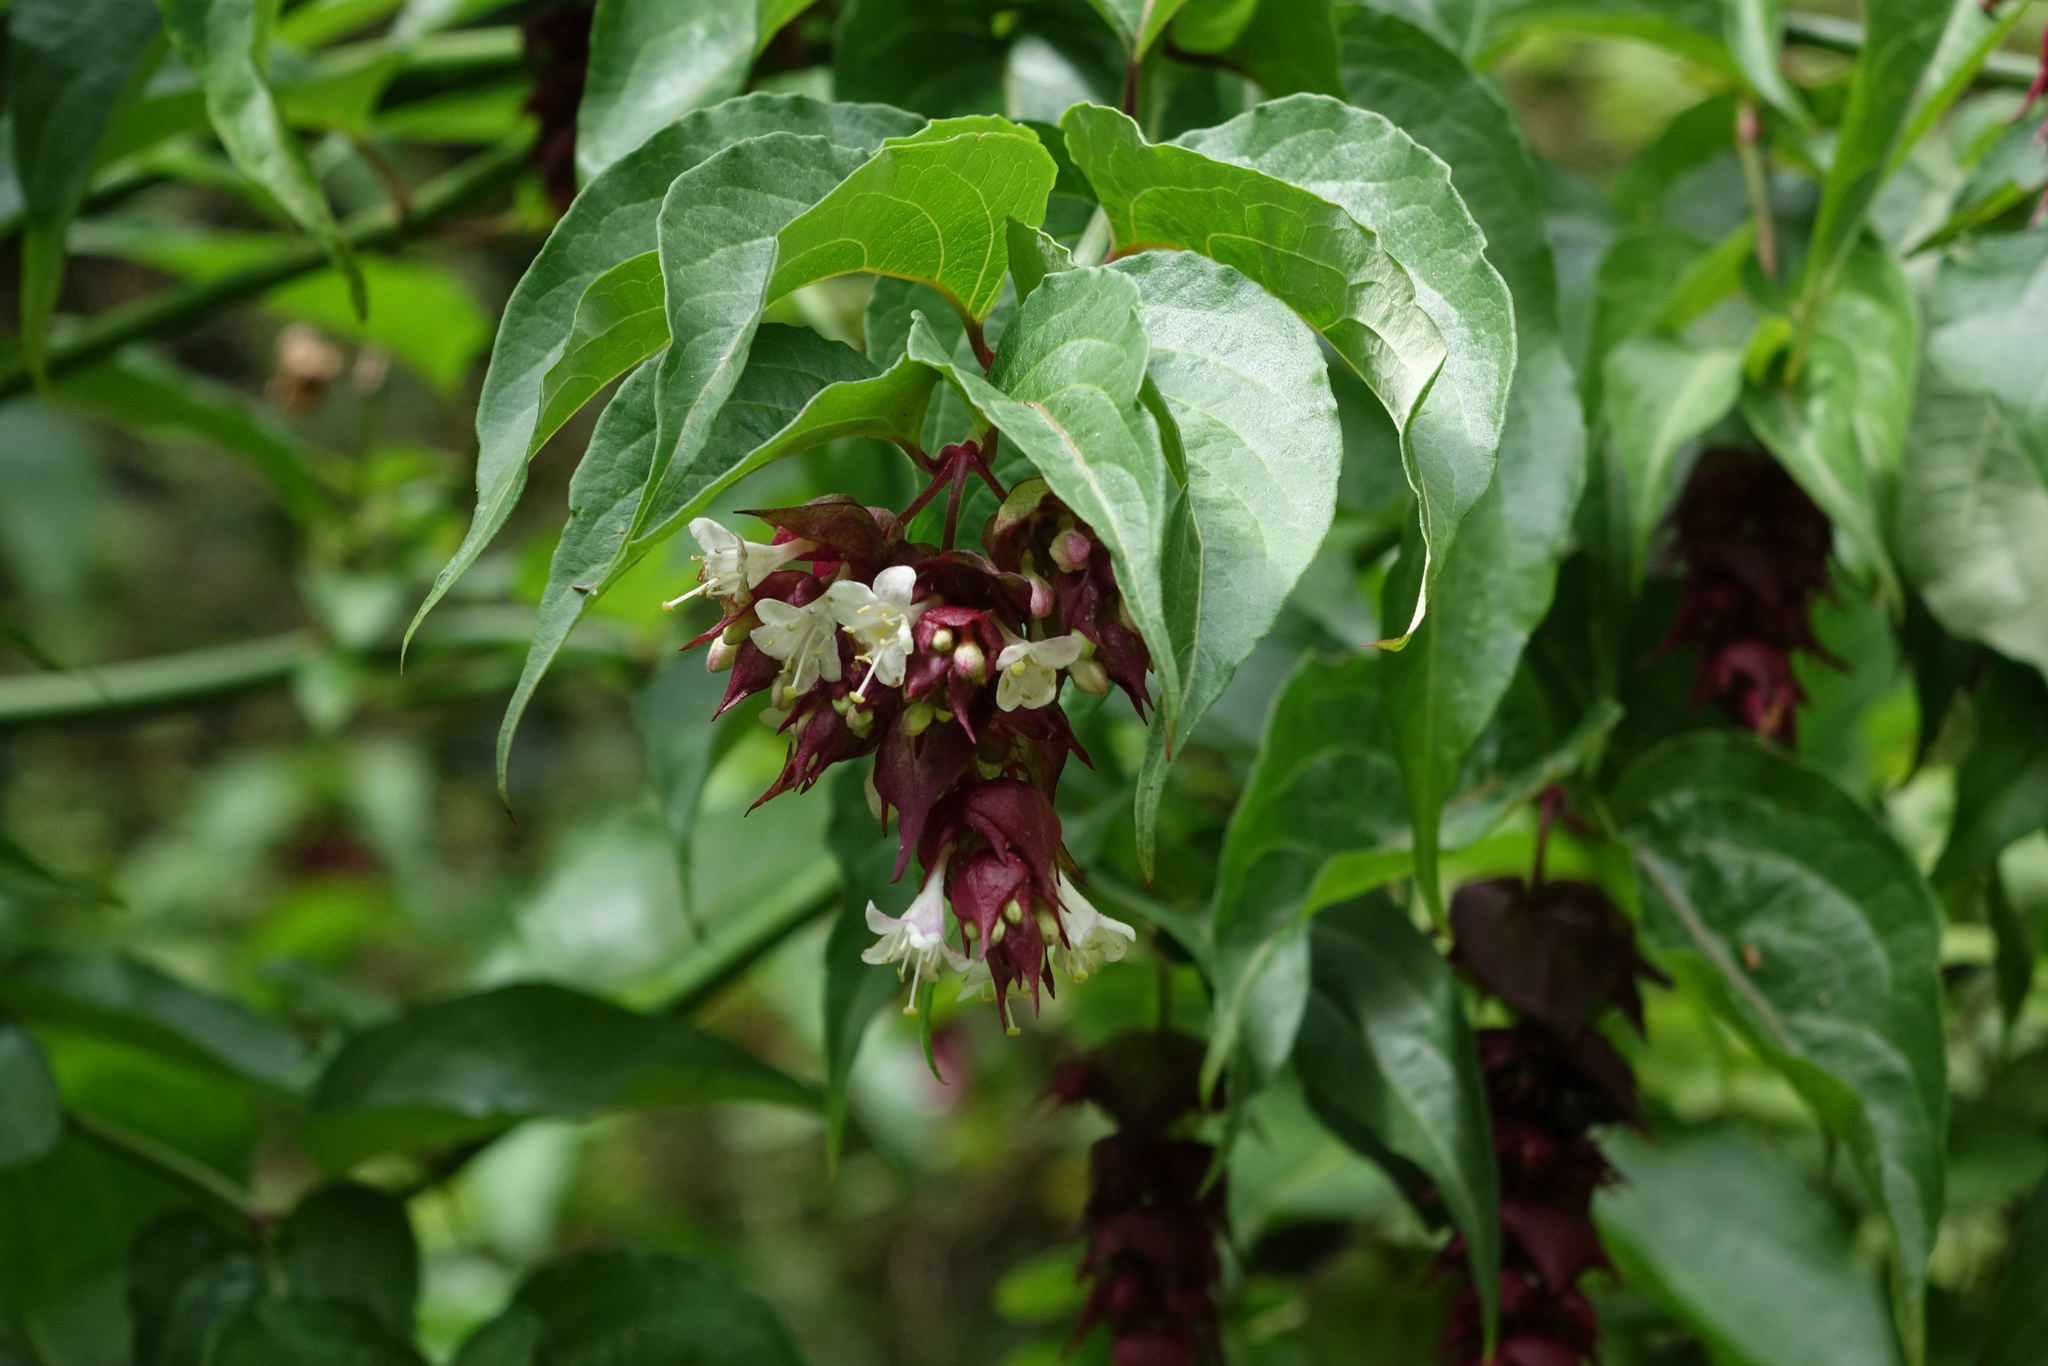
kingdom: Plantae
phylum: Tracheophyta
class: Magnoliopsida
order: Dipsacales
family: Caprifoliaceae
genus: Leycesteria
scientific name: Leycesteria formosa
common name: Himalayan honeysuckle
